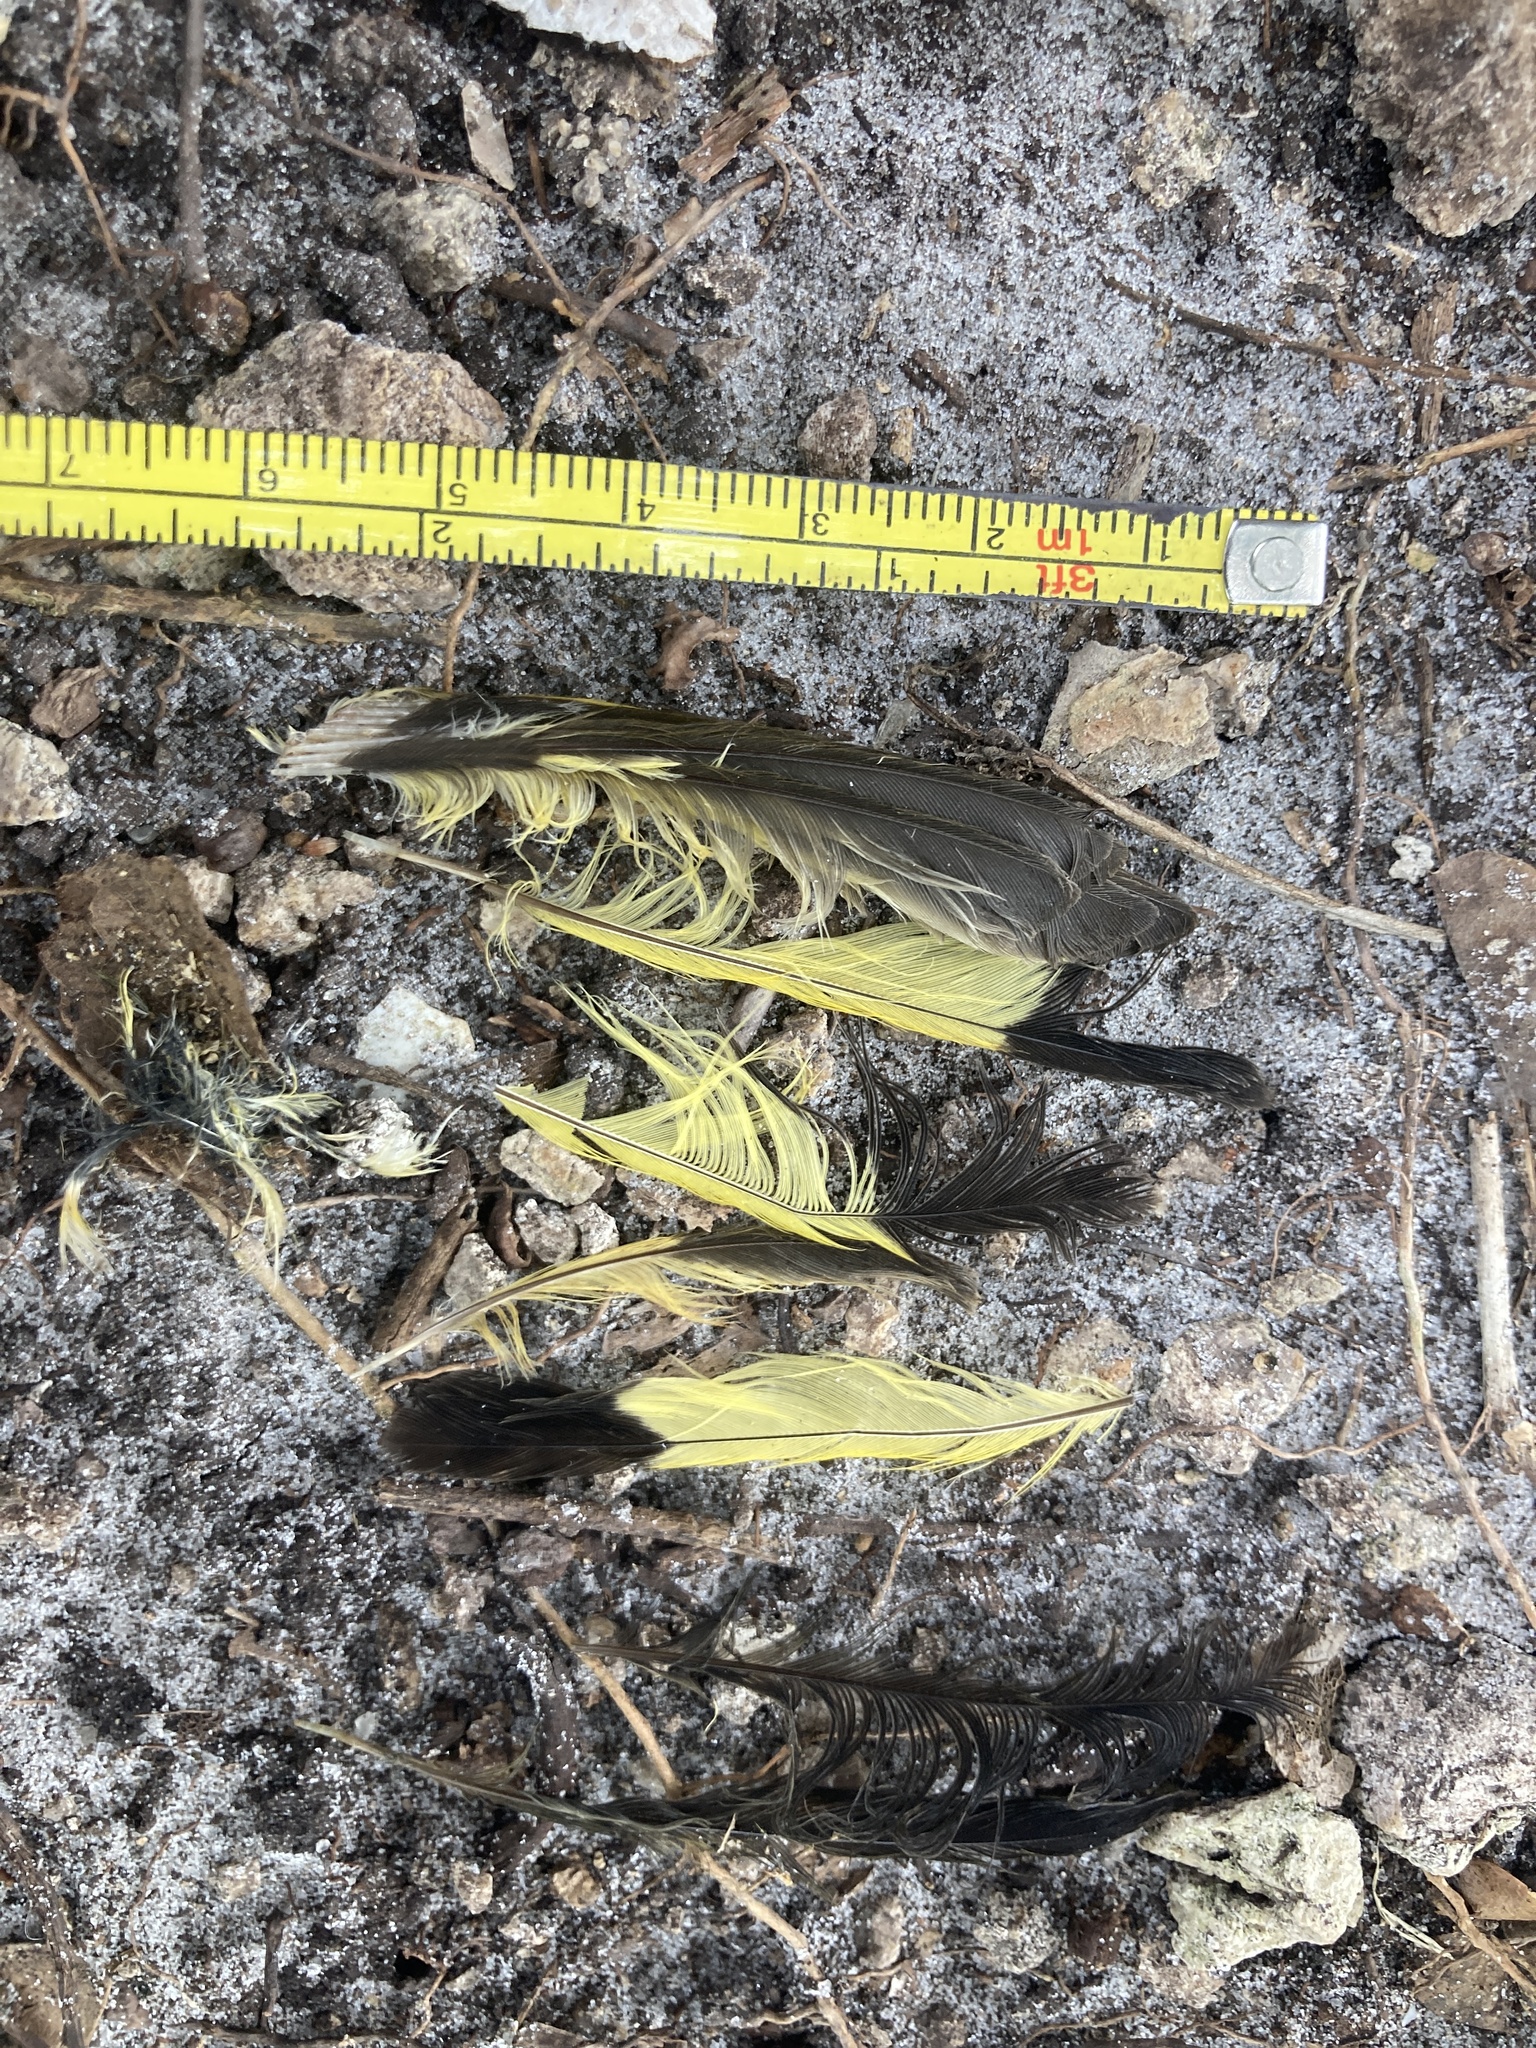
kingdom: Animalia
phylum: Chordata
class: Aves
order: Passeriformes
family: Parulidae
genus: Setophaga
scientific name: Setophaga ruticilla
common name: American redstart
